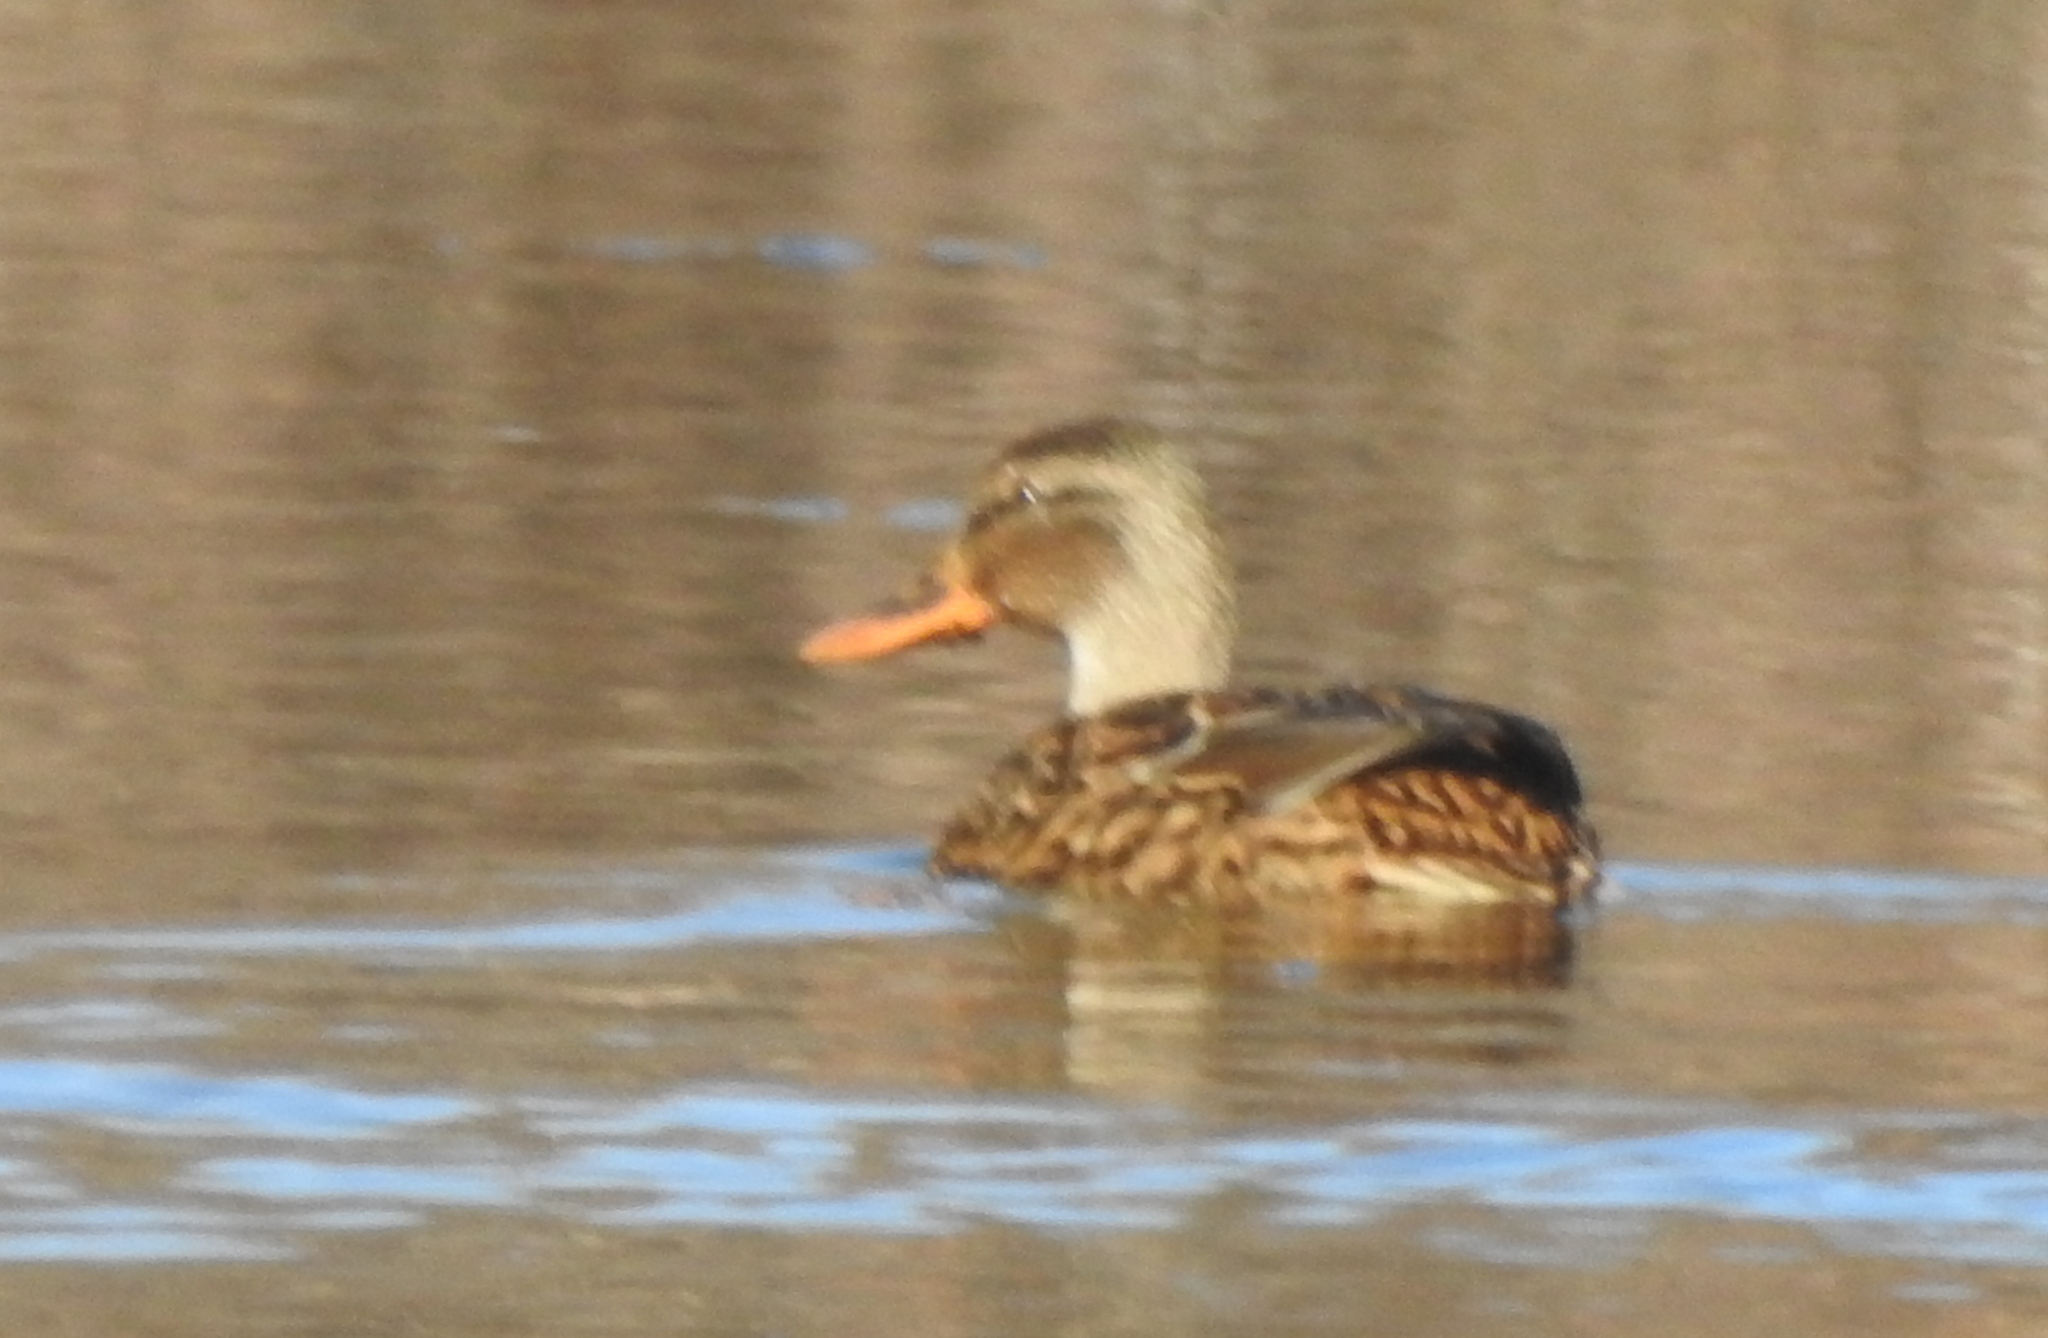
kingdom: Animalia
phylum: Chordata
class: Aves
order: Anseriformes
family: Anatidae
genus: Anas
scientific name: Anas platyrhynchos
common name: Mallard
